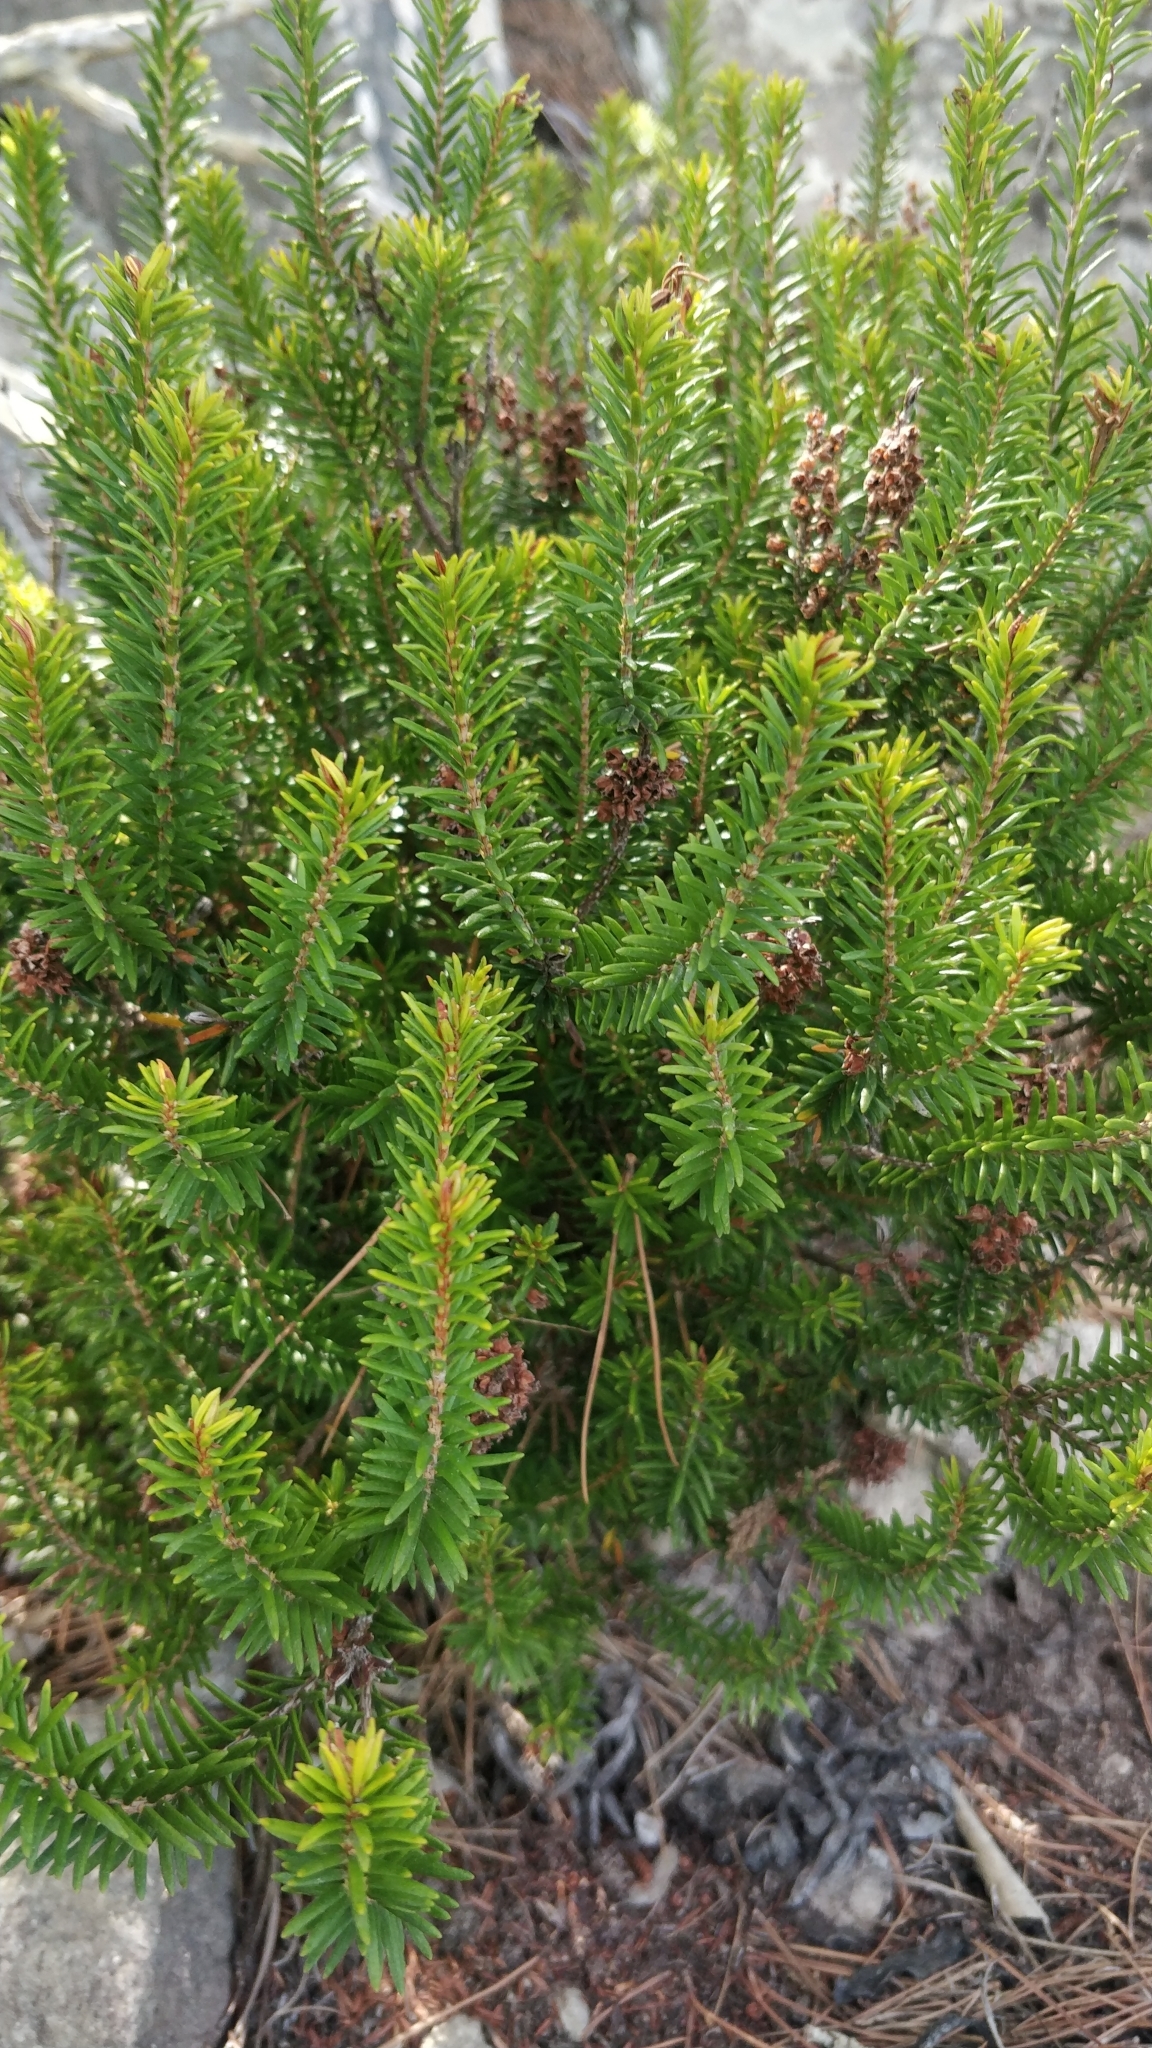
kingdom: Plantae
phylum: Tracheophyta
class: Magnoliopsida
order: Ericales
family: Ericaceae
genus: Erica
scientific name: Erica platycodon
